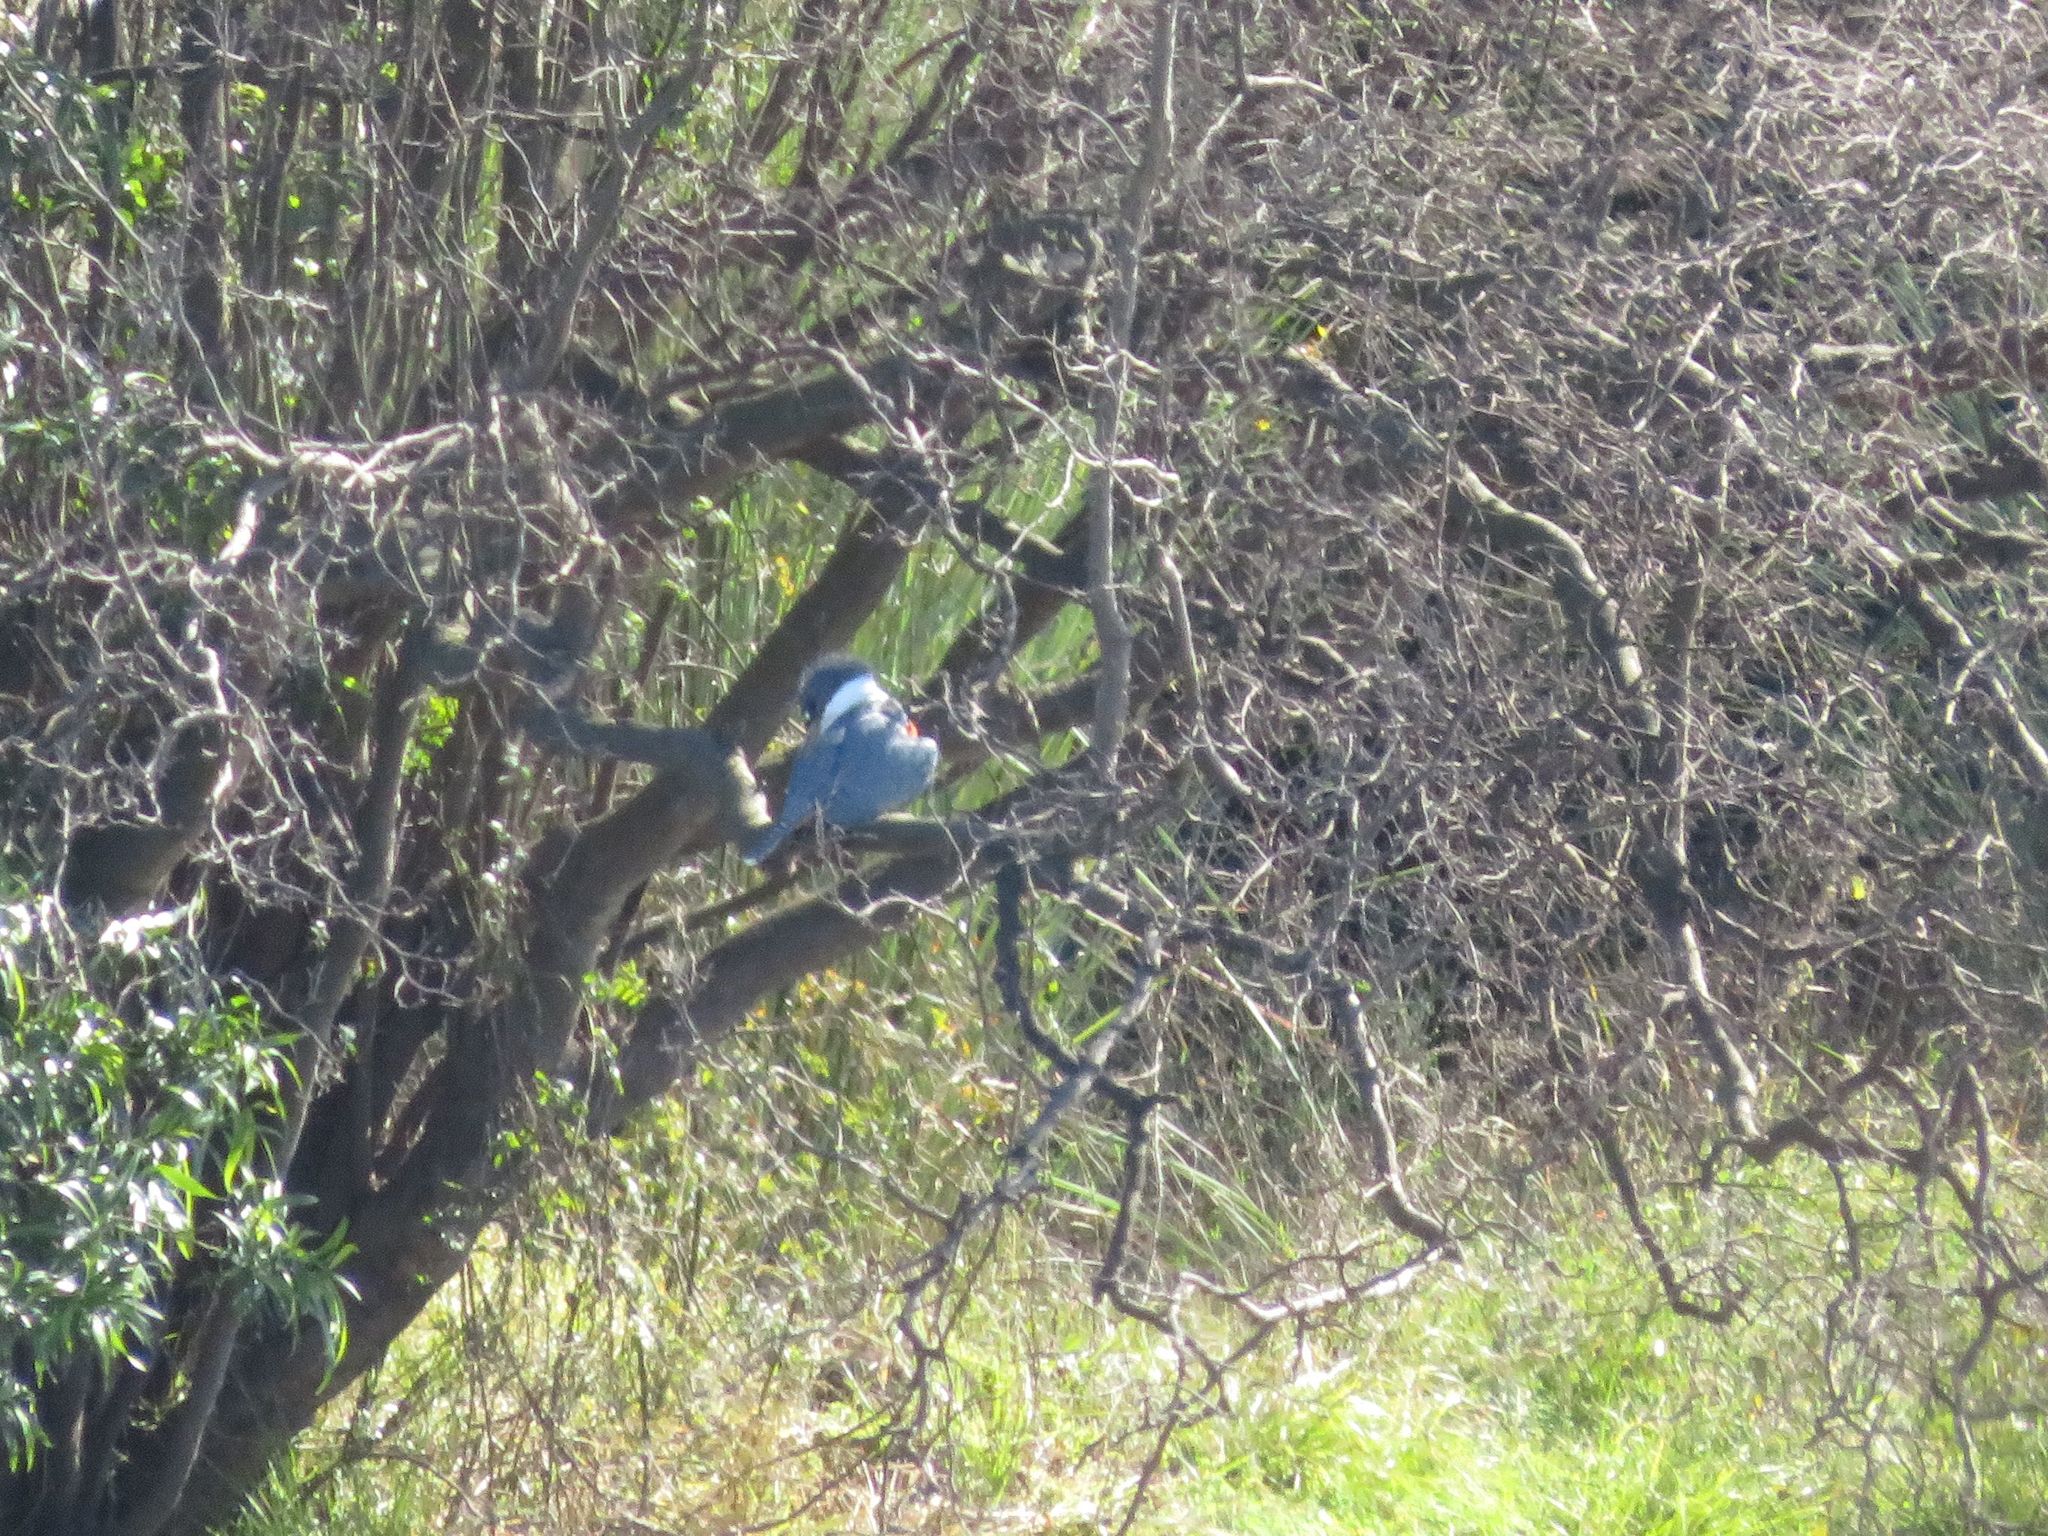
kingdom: Animalia
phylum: Chordata
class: Aves
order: Coraciiformes
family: Alcedinidae
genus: Megaceryle
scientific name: Megaceryle torquata
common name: Ringed kingfisher
